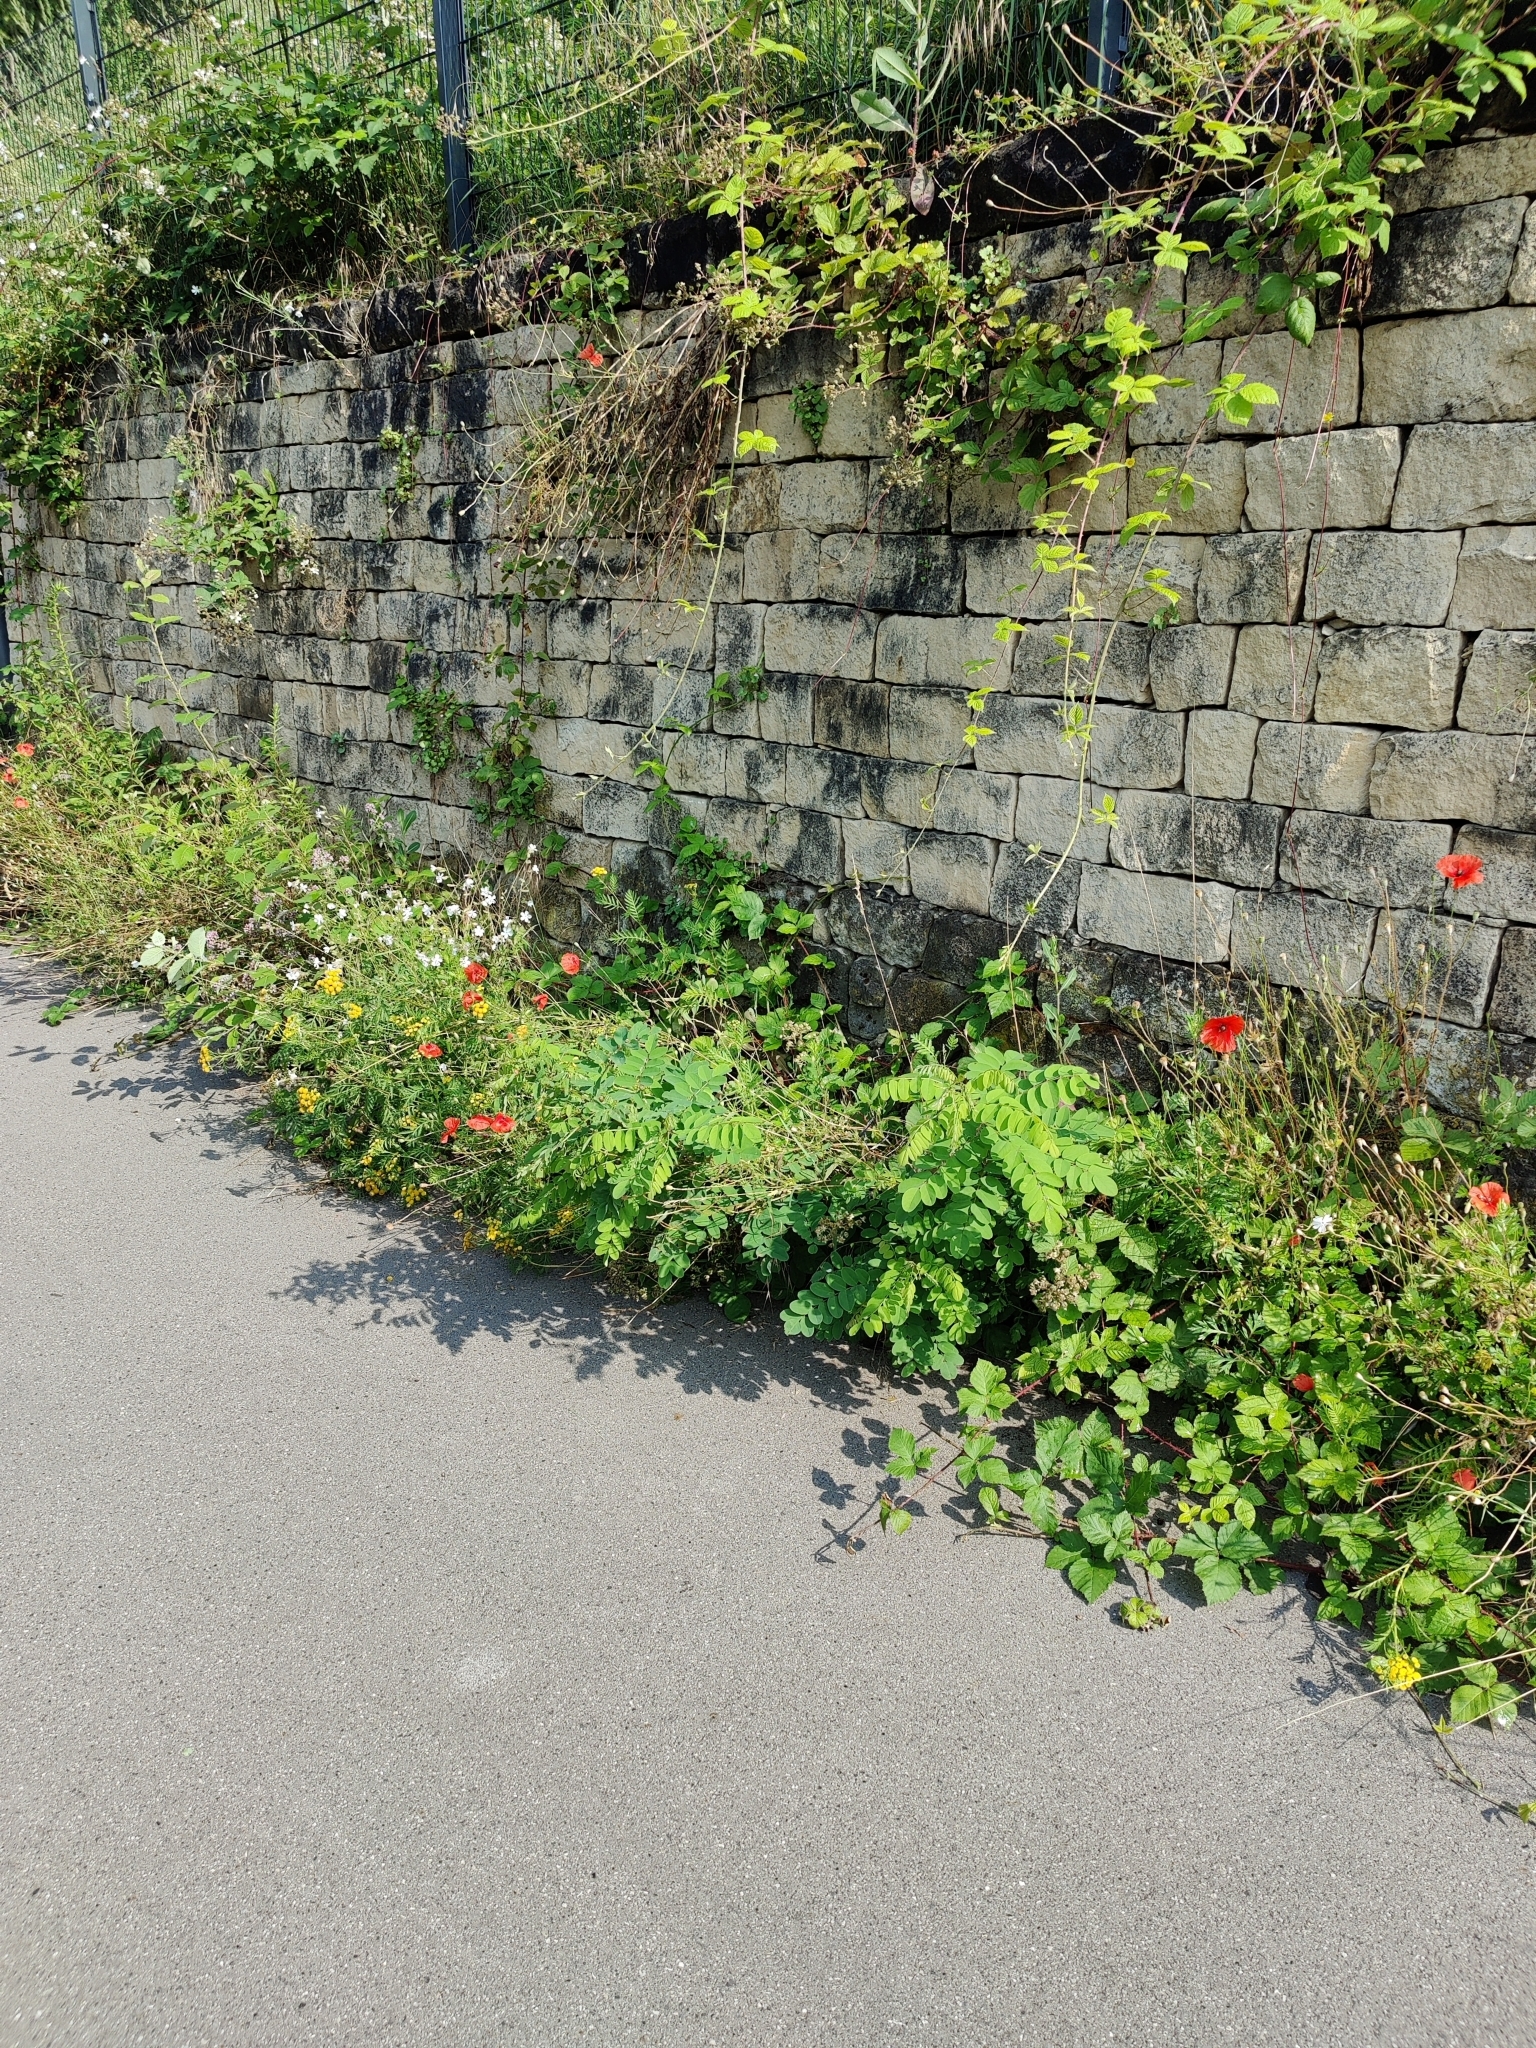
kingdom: Plantae
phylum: Tracheophyta
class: Magnoliopsida
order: Fabales
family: Fabaceae
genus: Robinia
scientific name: Robinia pseudoacacia
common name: Black locust
